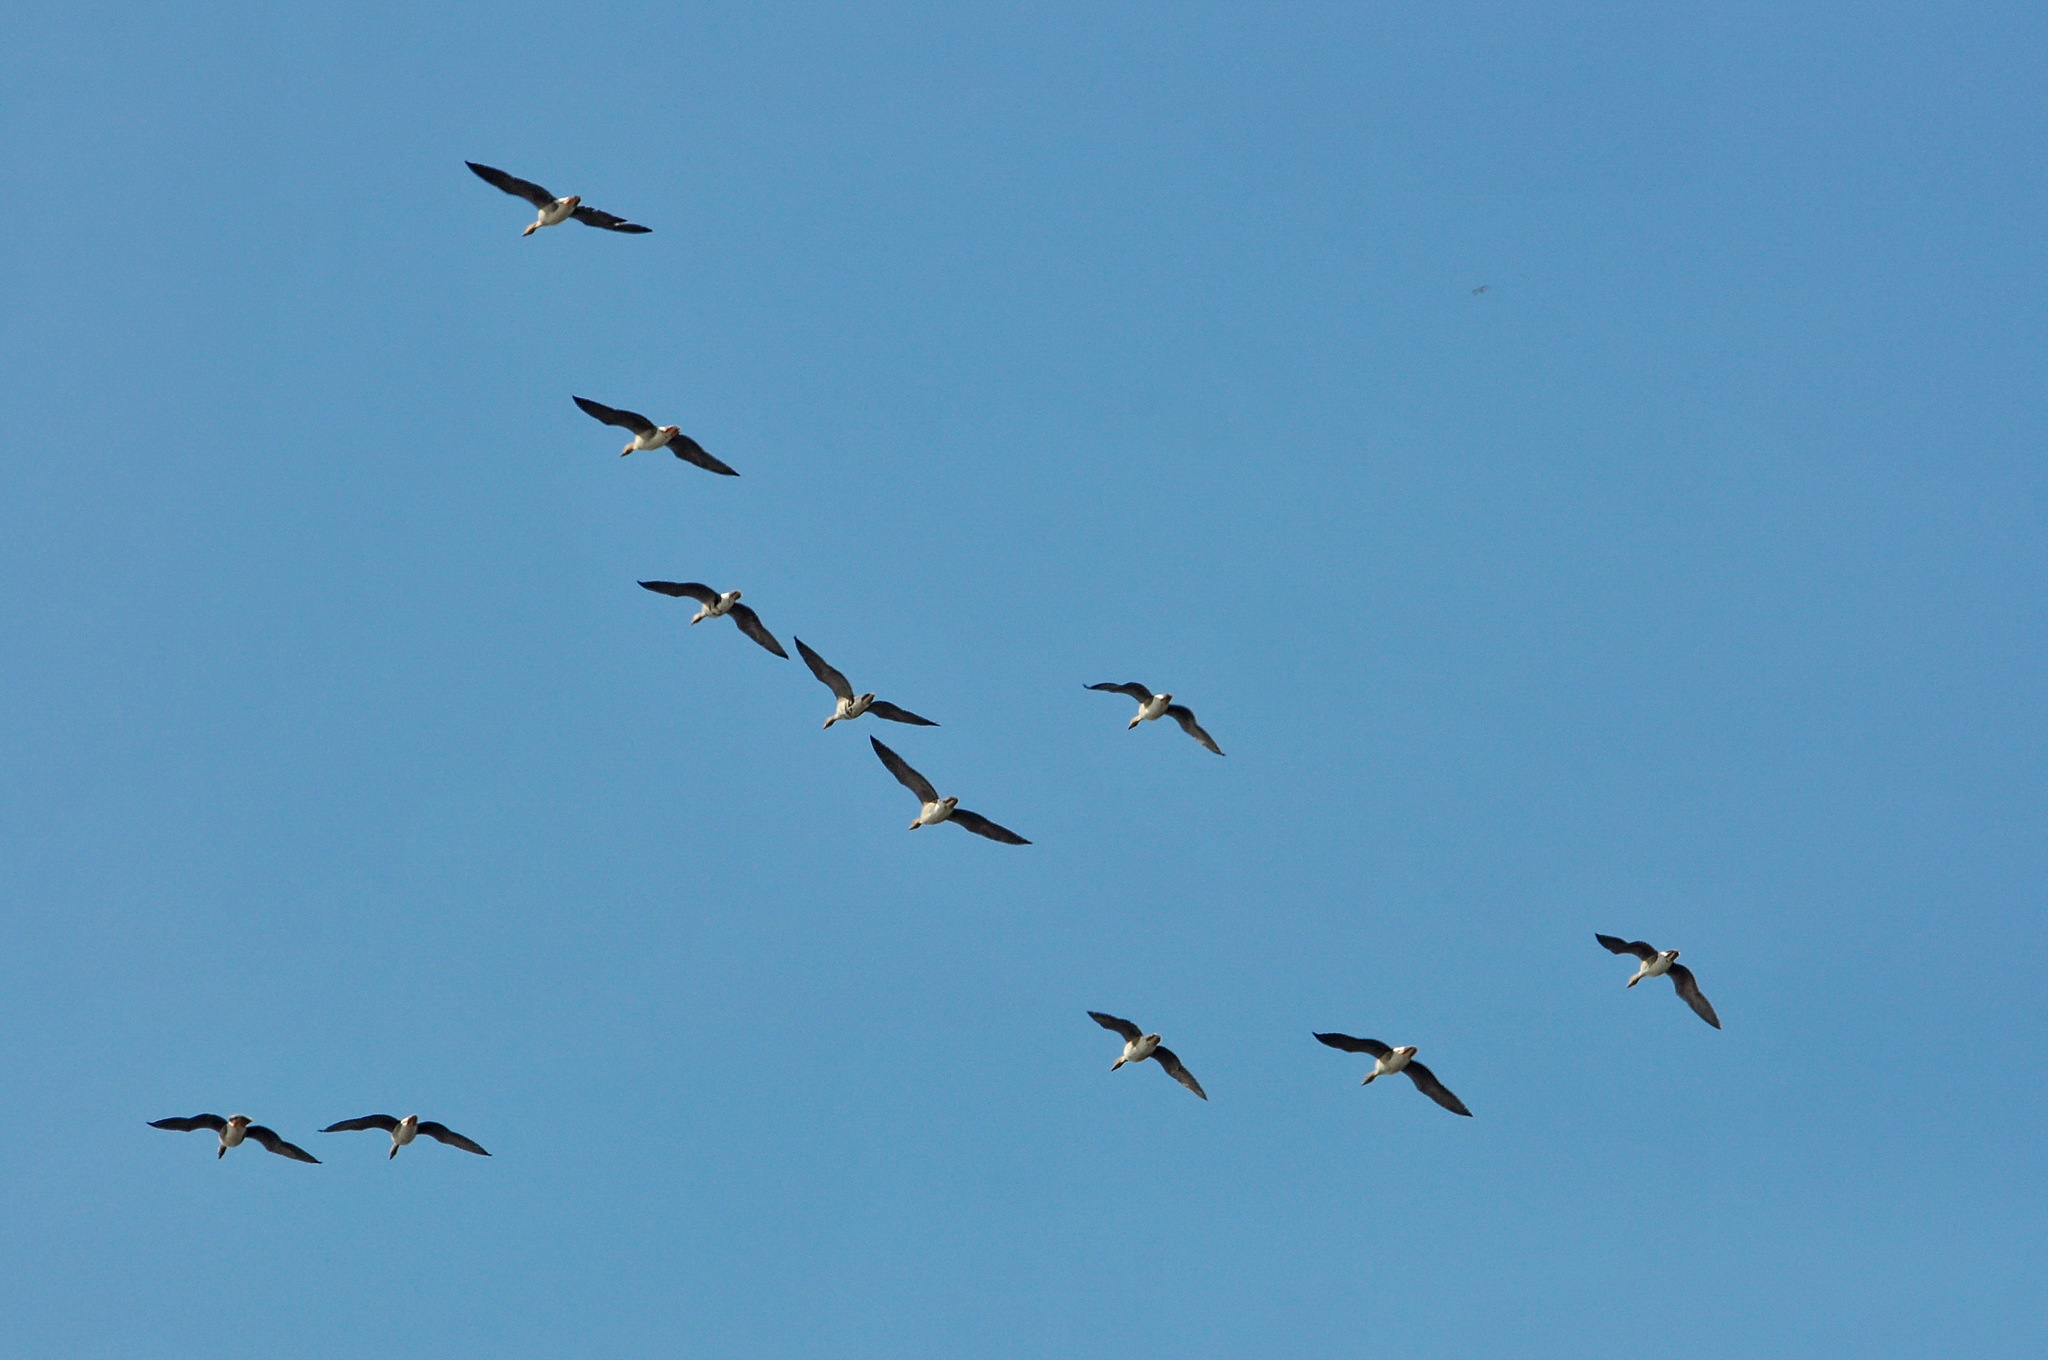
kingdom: Animalia
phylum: Chordata
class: Aves
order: Anseriformes
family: Anatidae
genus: Anser
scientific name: Anser fabalis
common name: Bean goose
